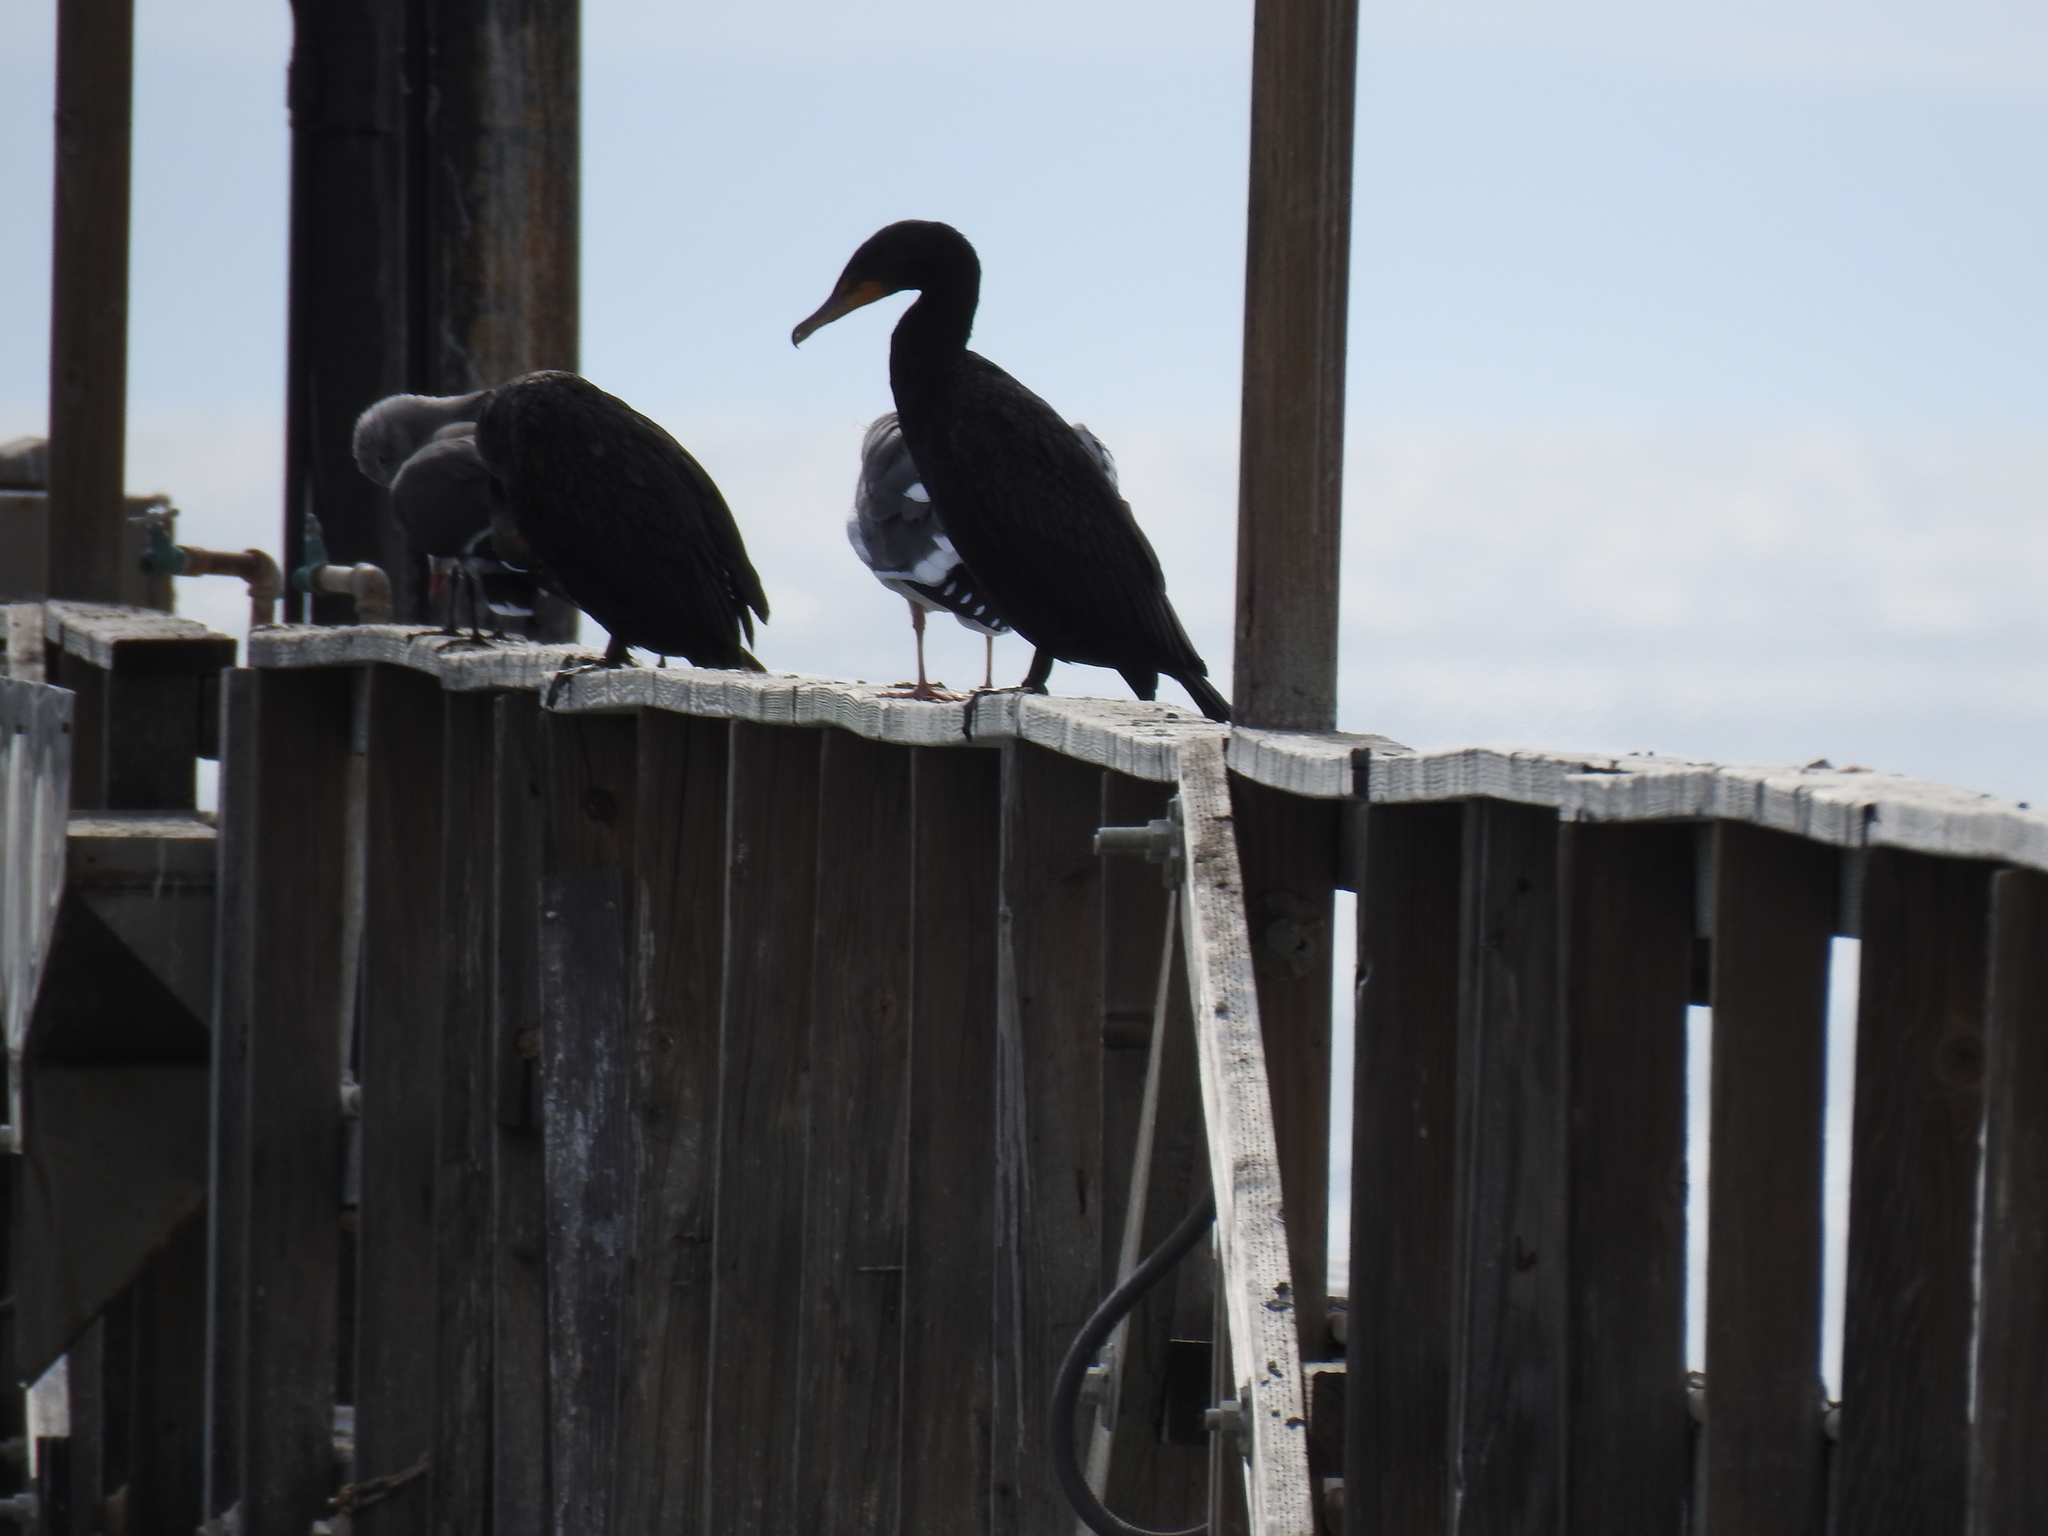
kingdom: Animalia
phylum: Chordata
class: Aves
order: Suliformes
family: Phalacrocoracidae
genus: Phalacrocorax
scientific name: Phalacrocorax auritus
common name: Double-crested cormorant
